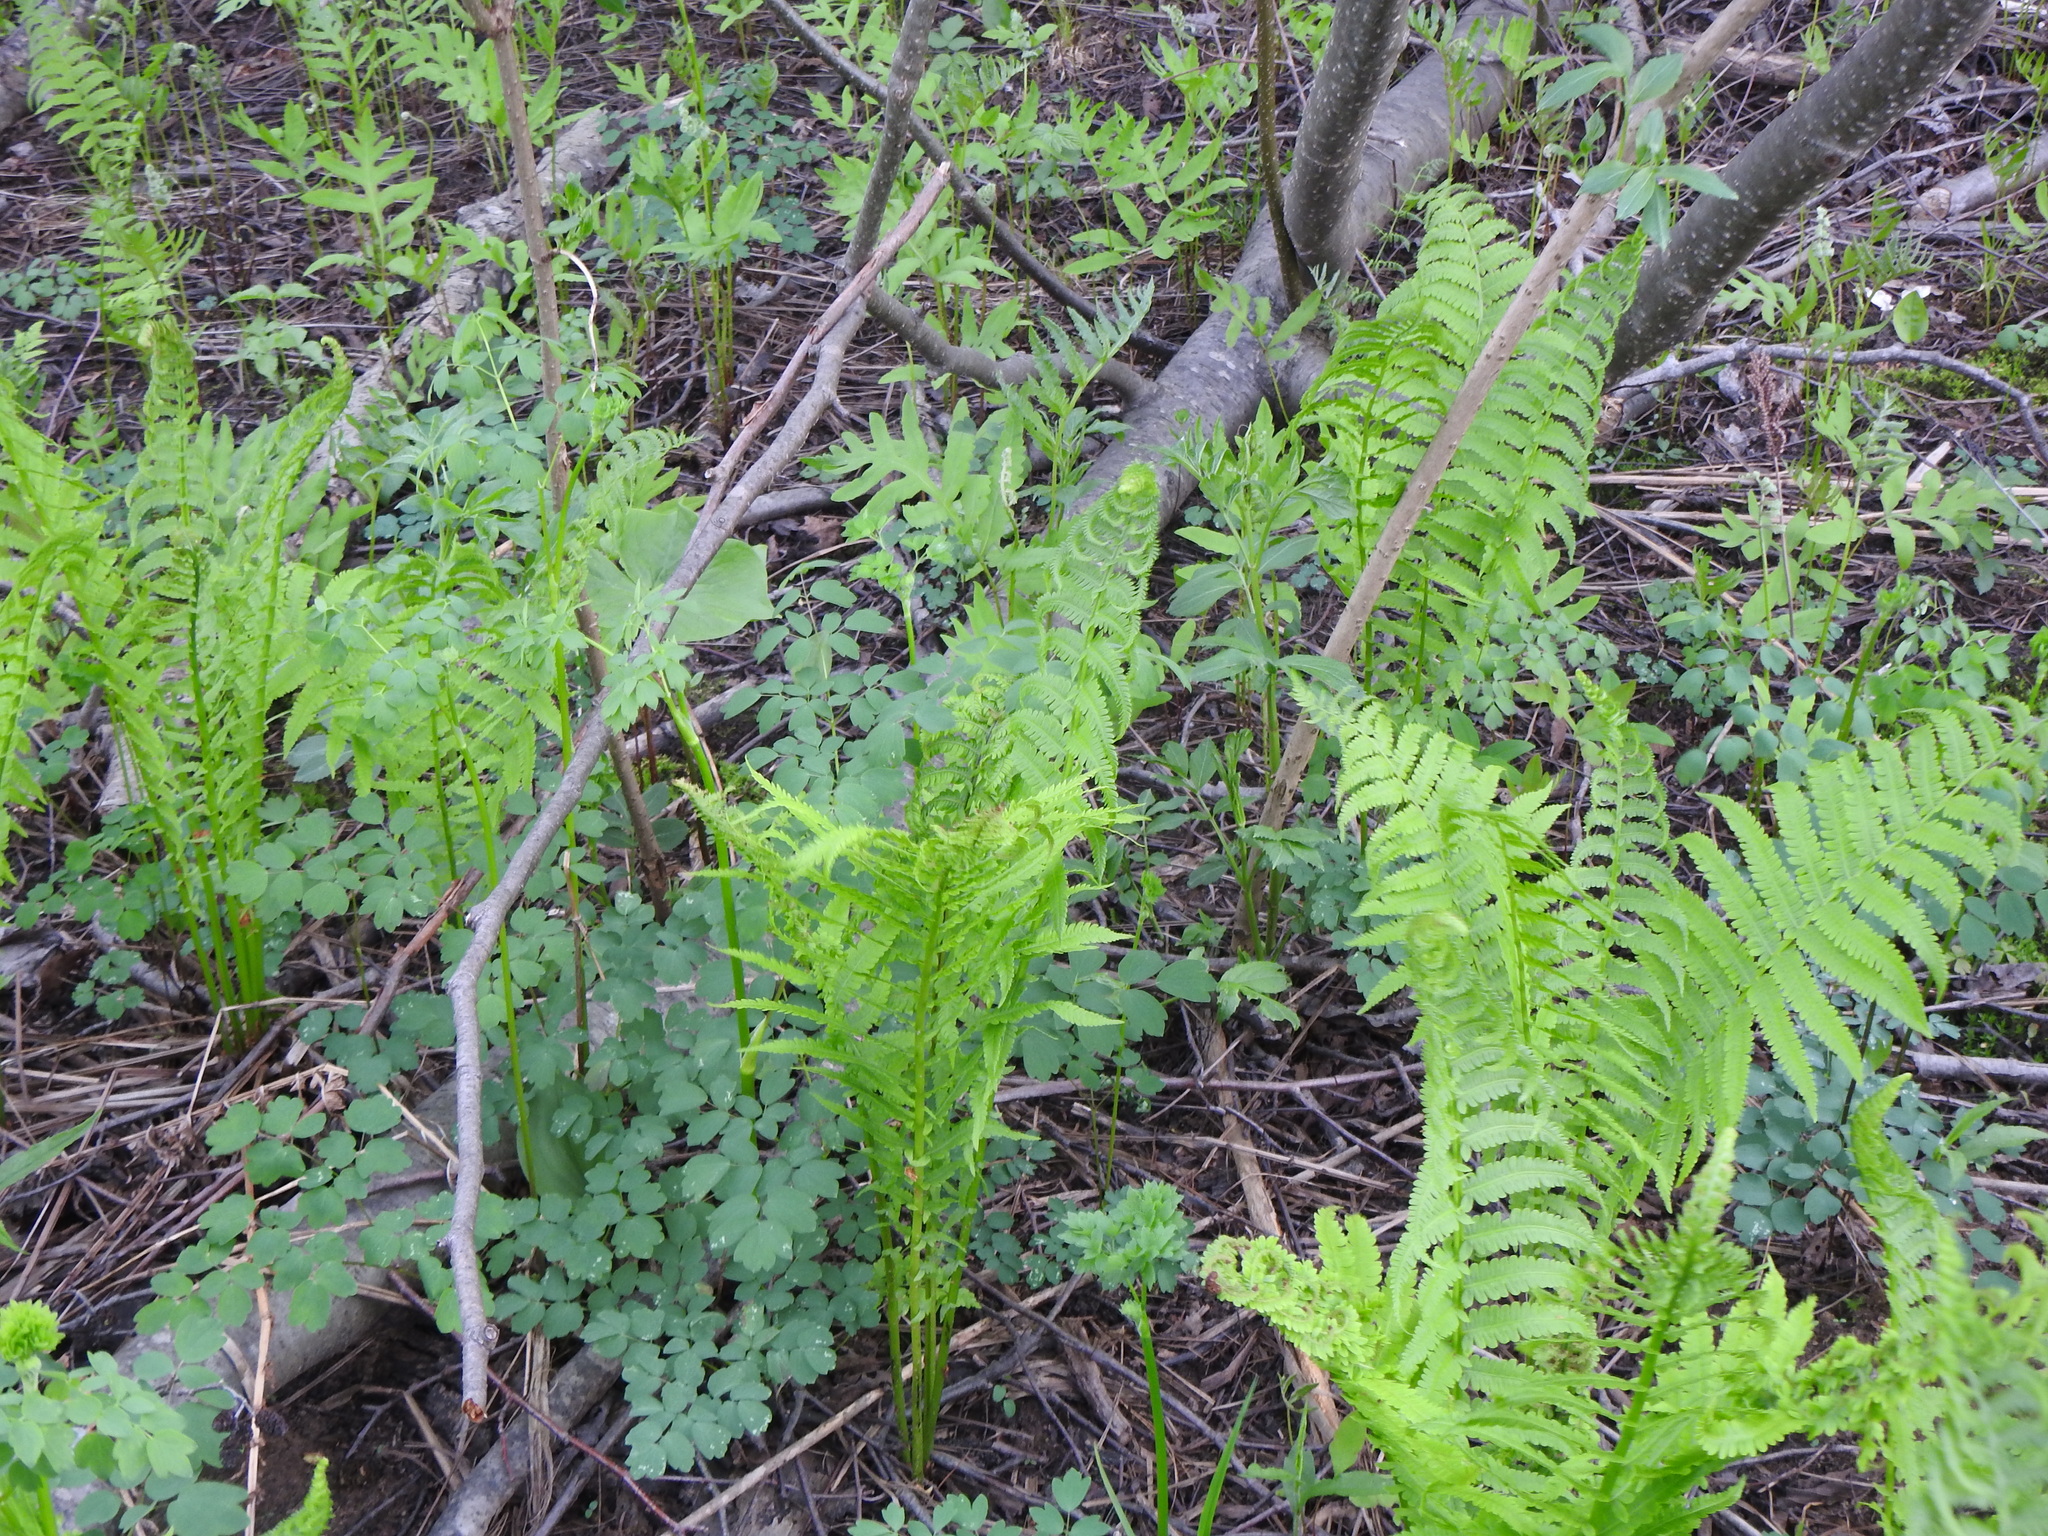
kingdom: Plantae
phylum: Tracheophyta
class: Polypodiopsida
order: Polypodiales
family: Onocleaceae
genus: Matteuccia
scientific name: Matteuccia struthiopteris
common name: Ostrich fern
